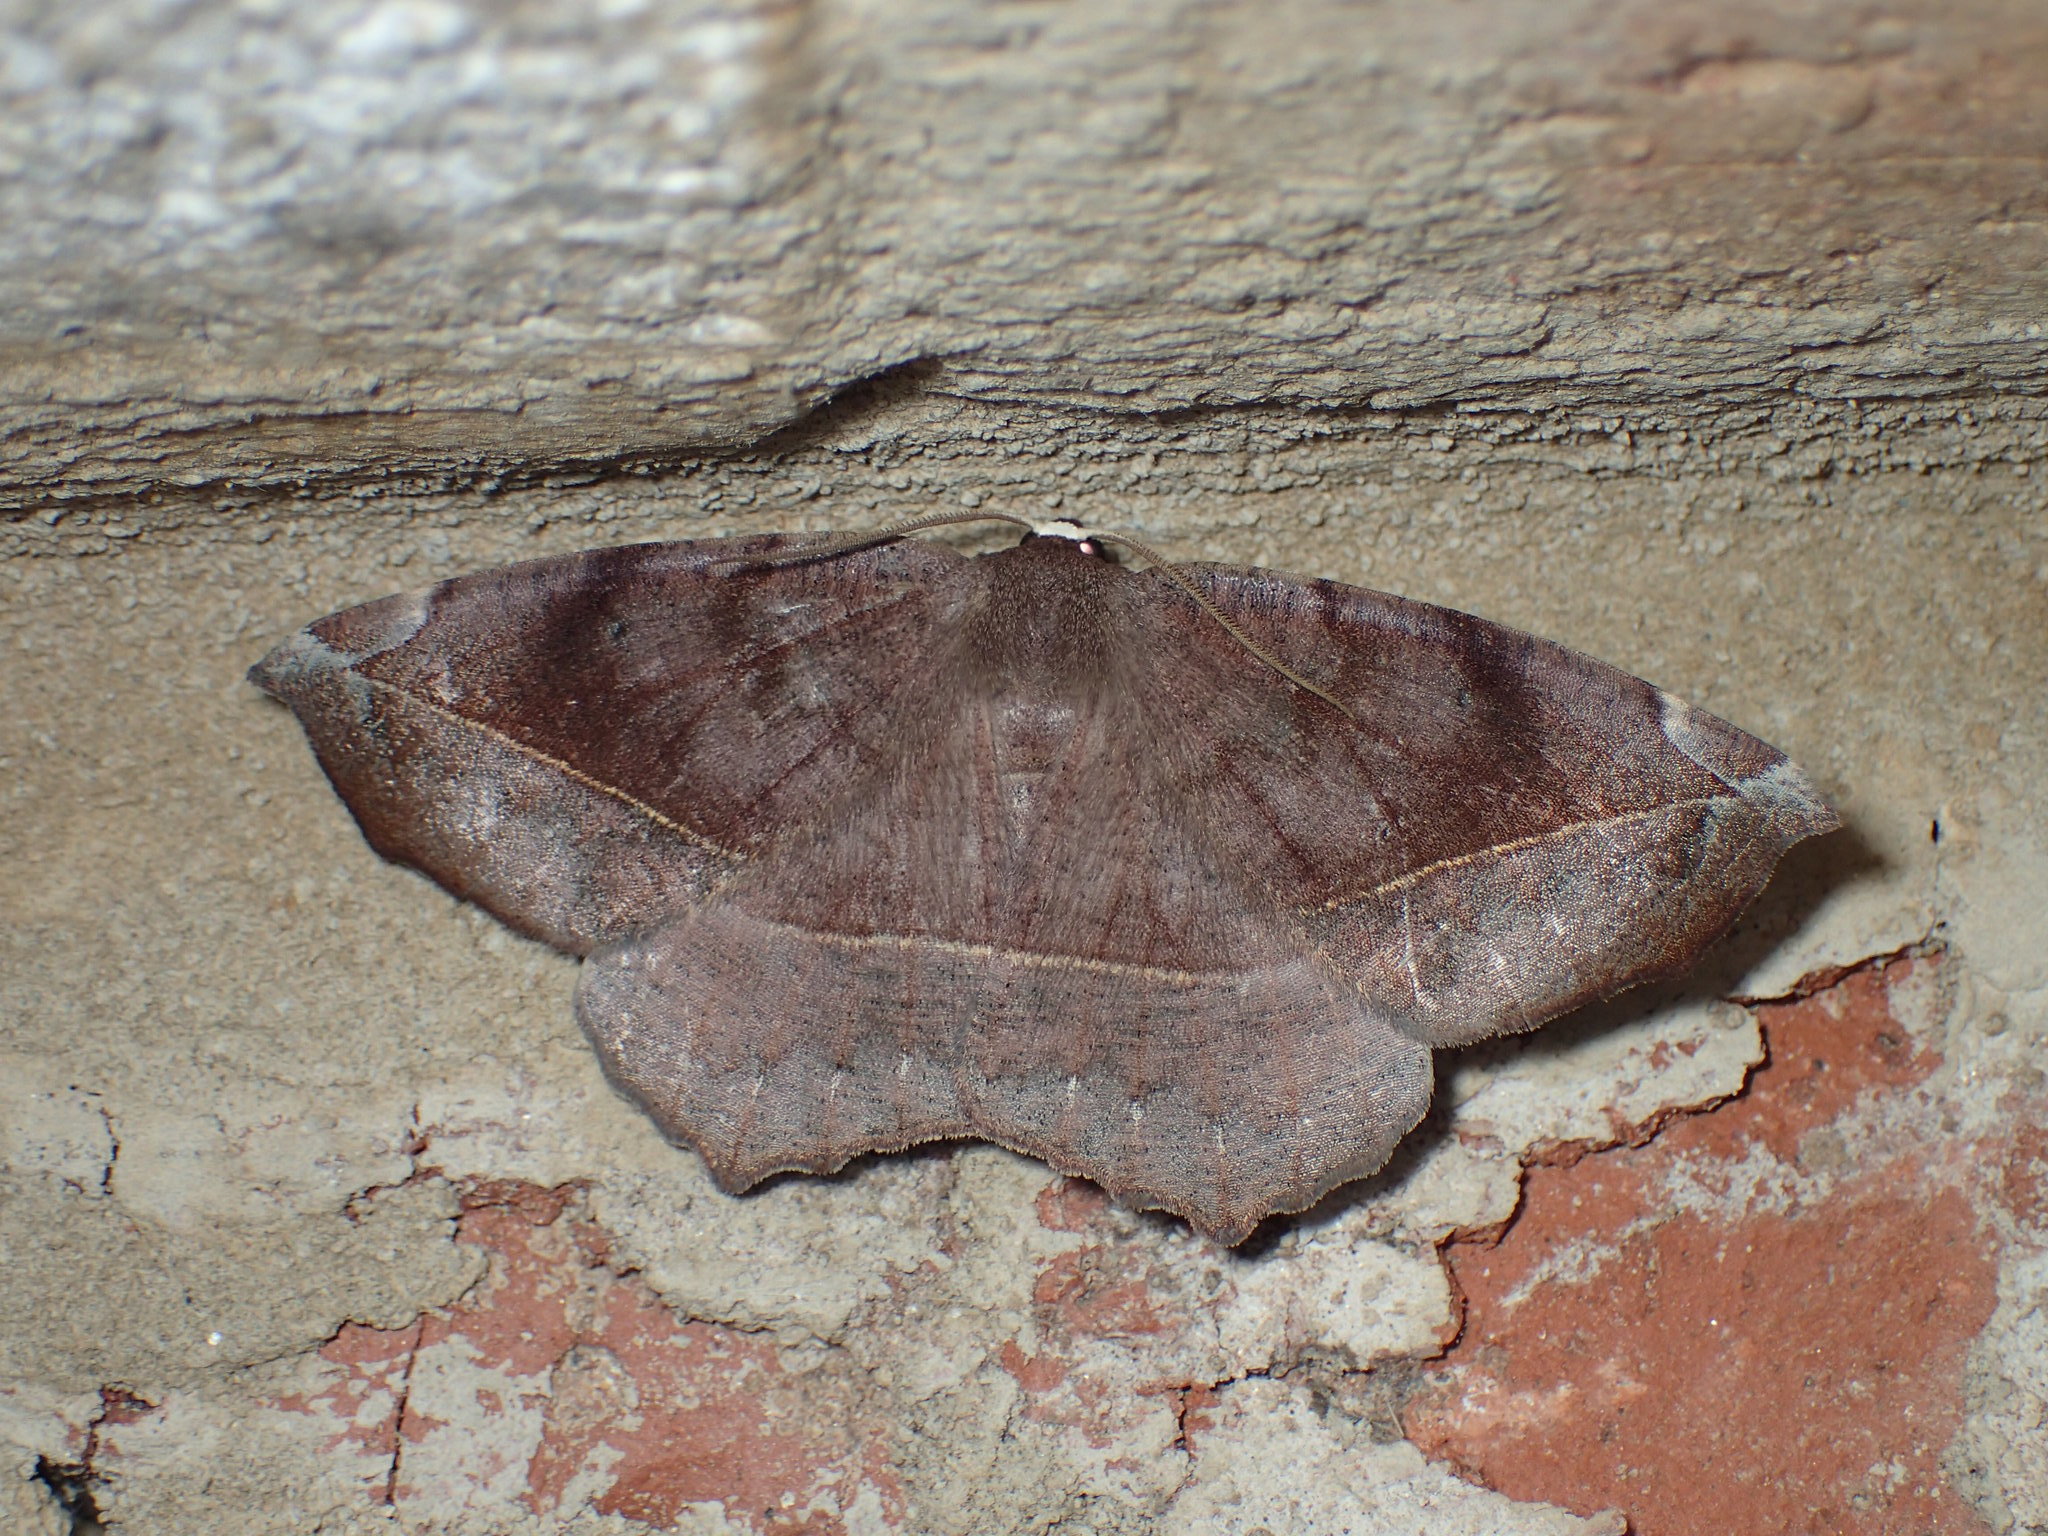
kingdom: Animalia
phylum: Arthropoda
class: Insecta
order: Lepidoptera
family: Geometridae
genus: Eutrapela
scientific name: Eutrapela clemataria
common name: Curved-toothed geometer
